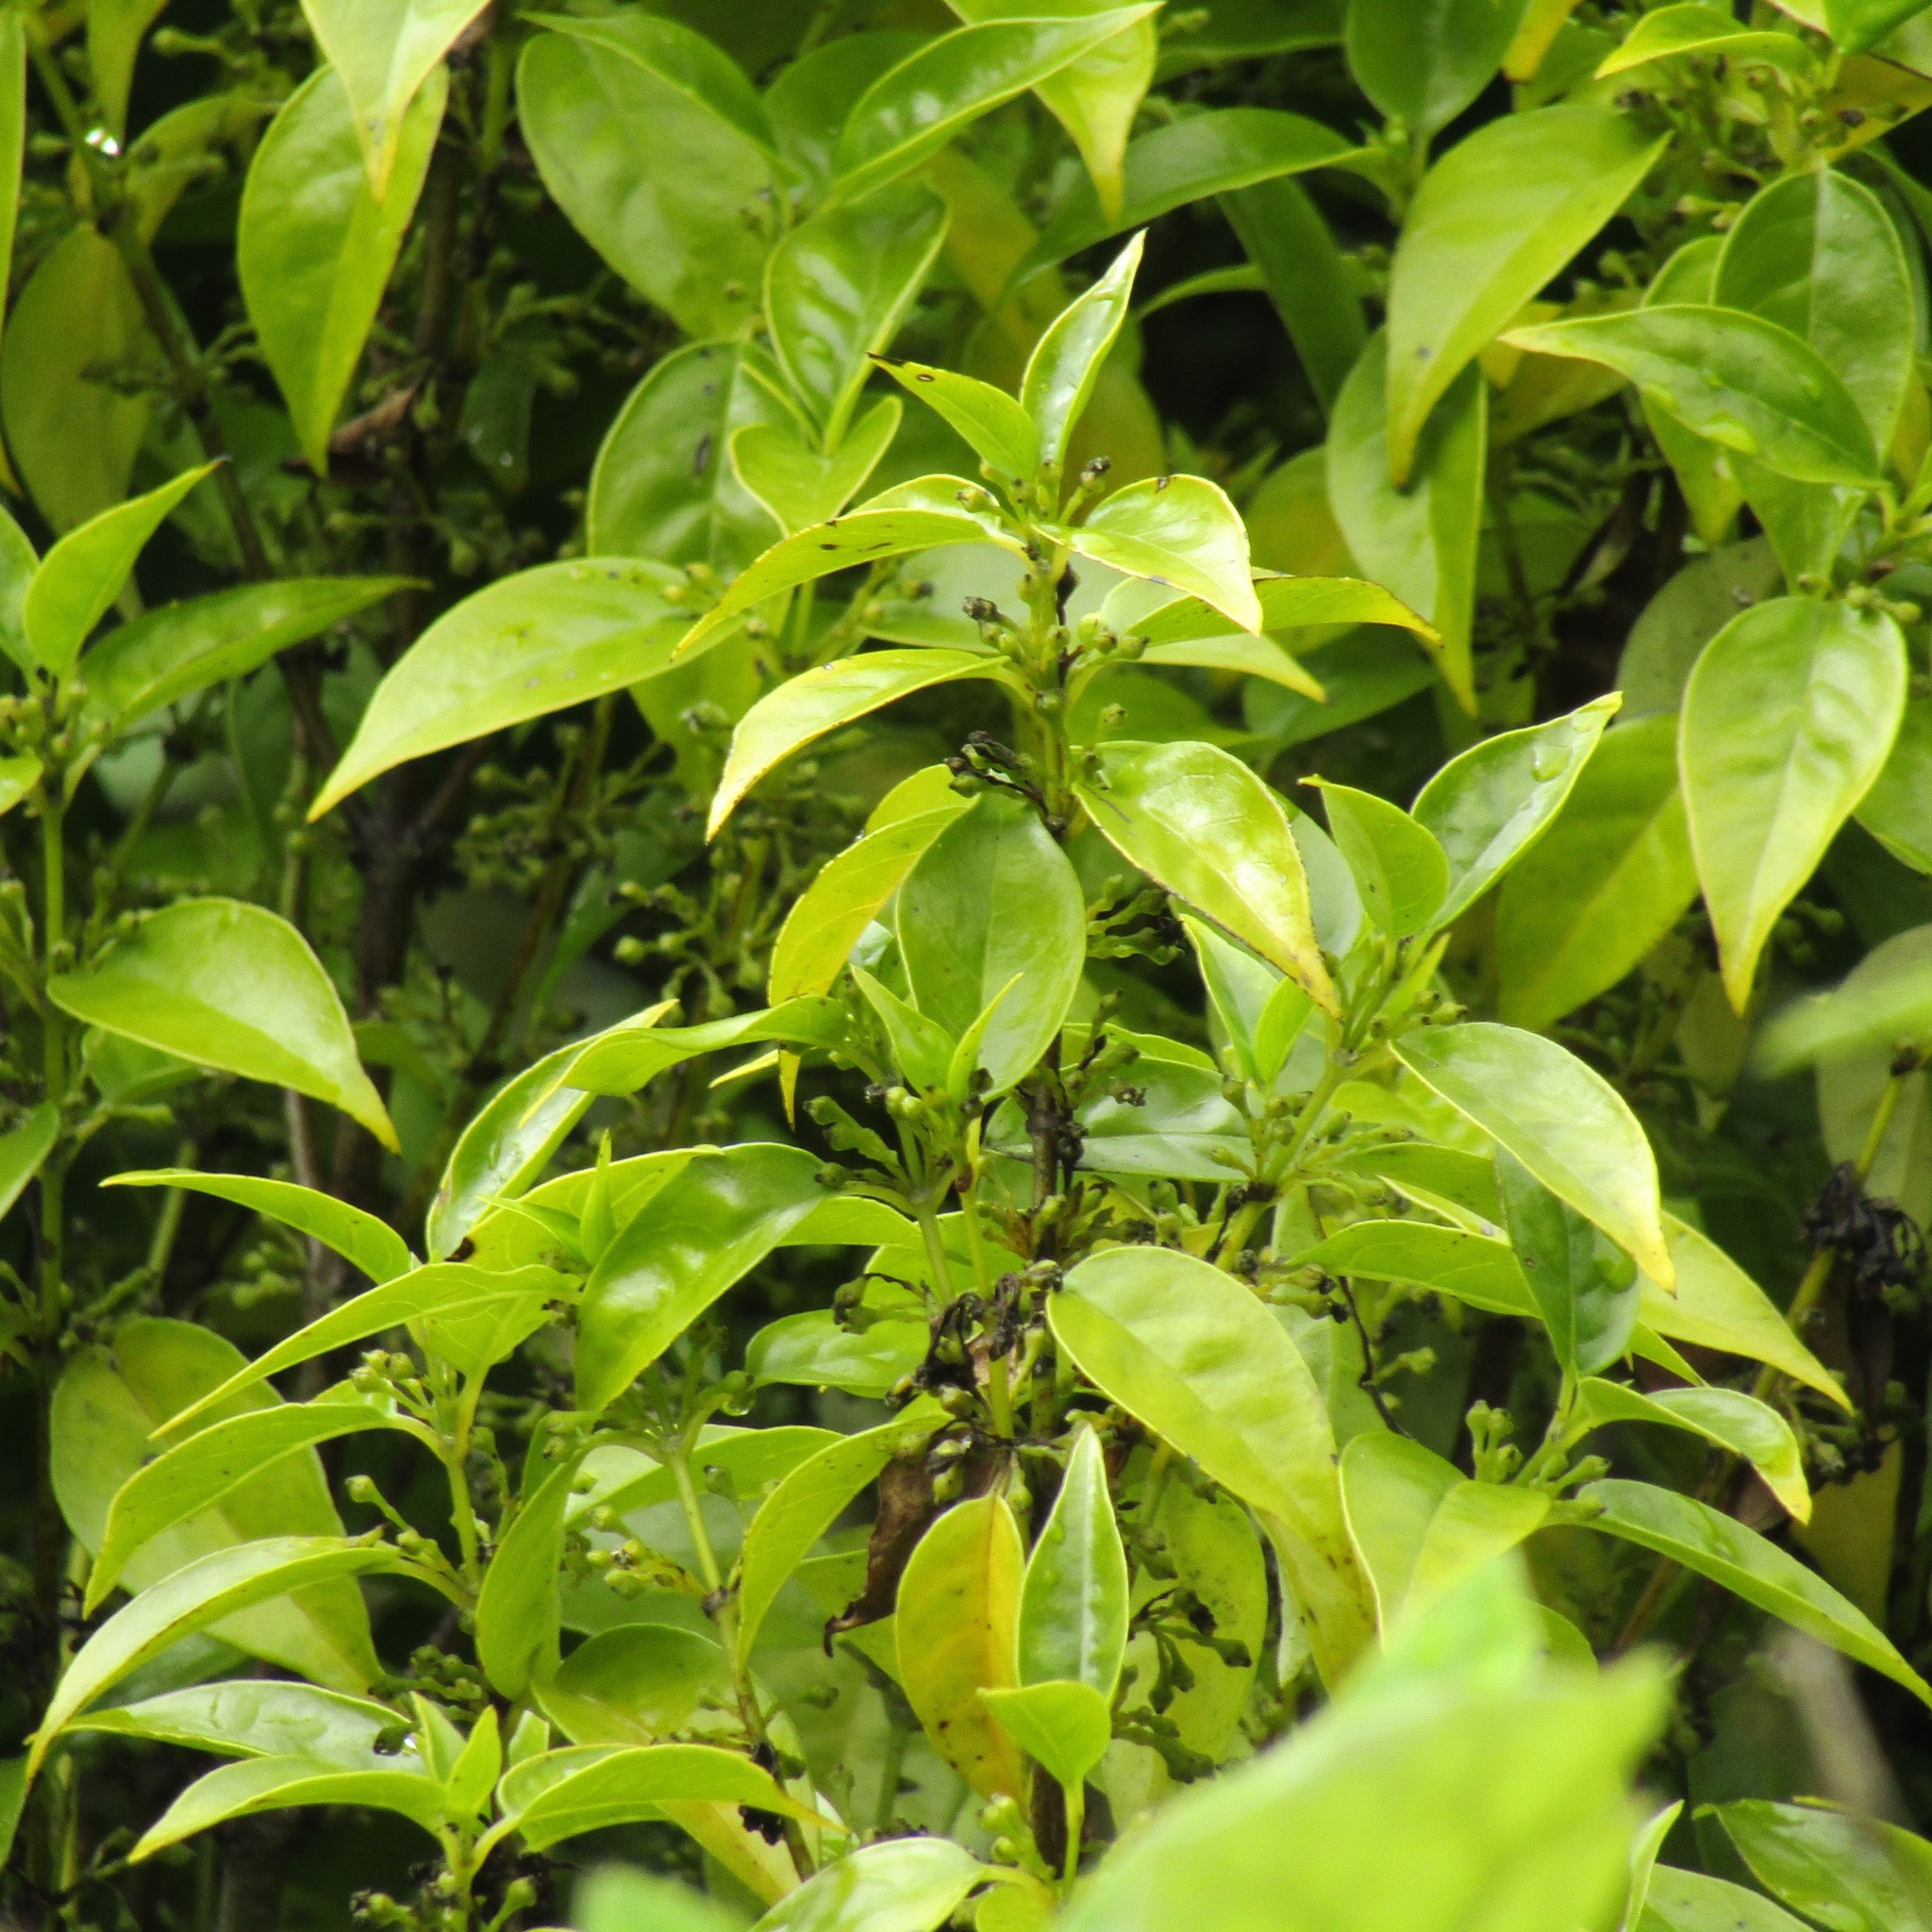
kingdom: Plantae
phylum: Tracheophyta
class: Magnoliopsida
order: Gentianales
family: Loganiaceae
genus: Geniostoma
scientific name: Geniostoma ligustrifolium
